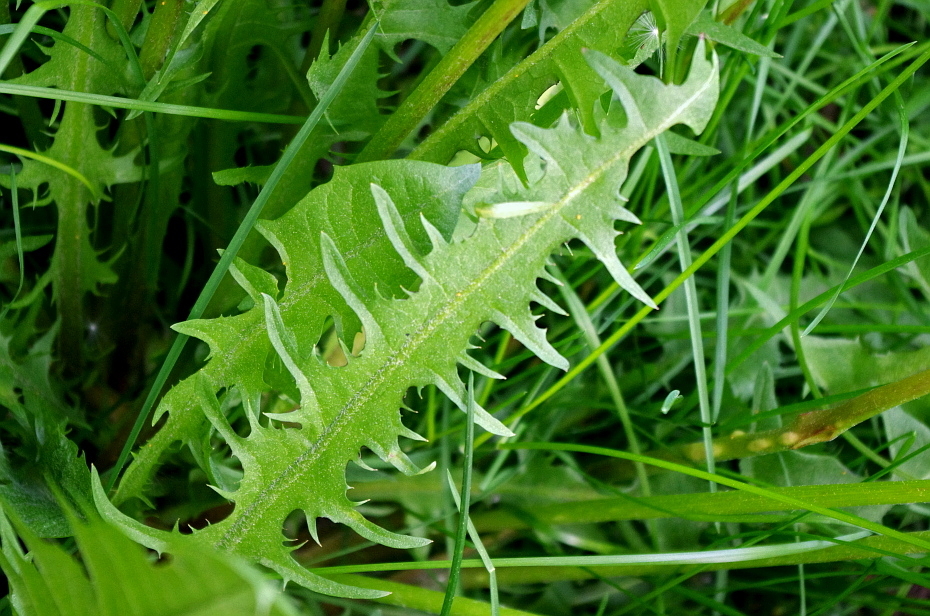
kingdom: Plantae
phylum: Tracheophyta
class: Magnoliopsida
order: Asterales
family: Asteraceae
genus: Taraxacum
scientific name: Taraxacum officinale
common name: Common dandelion
